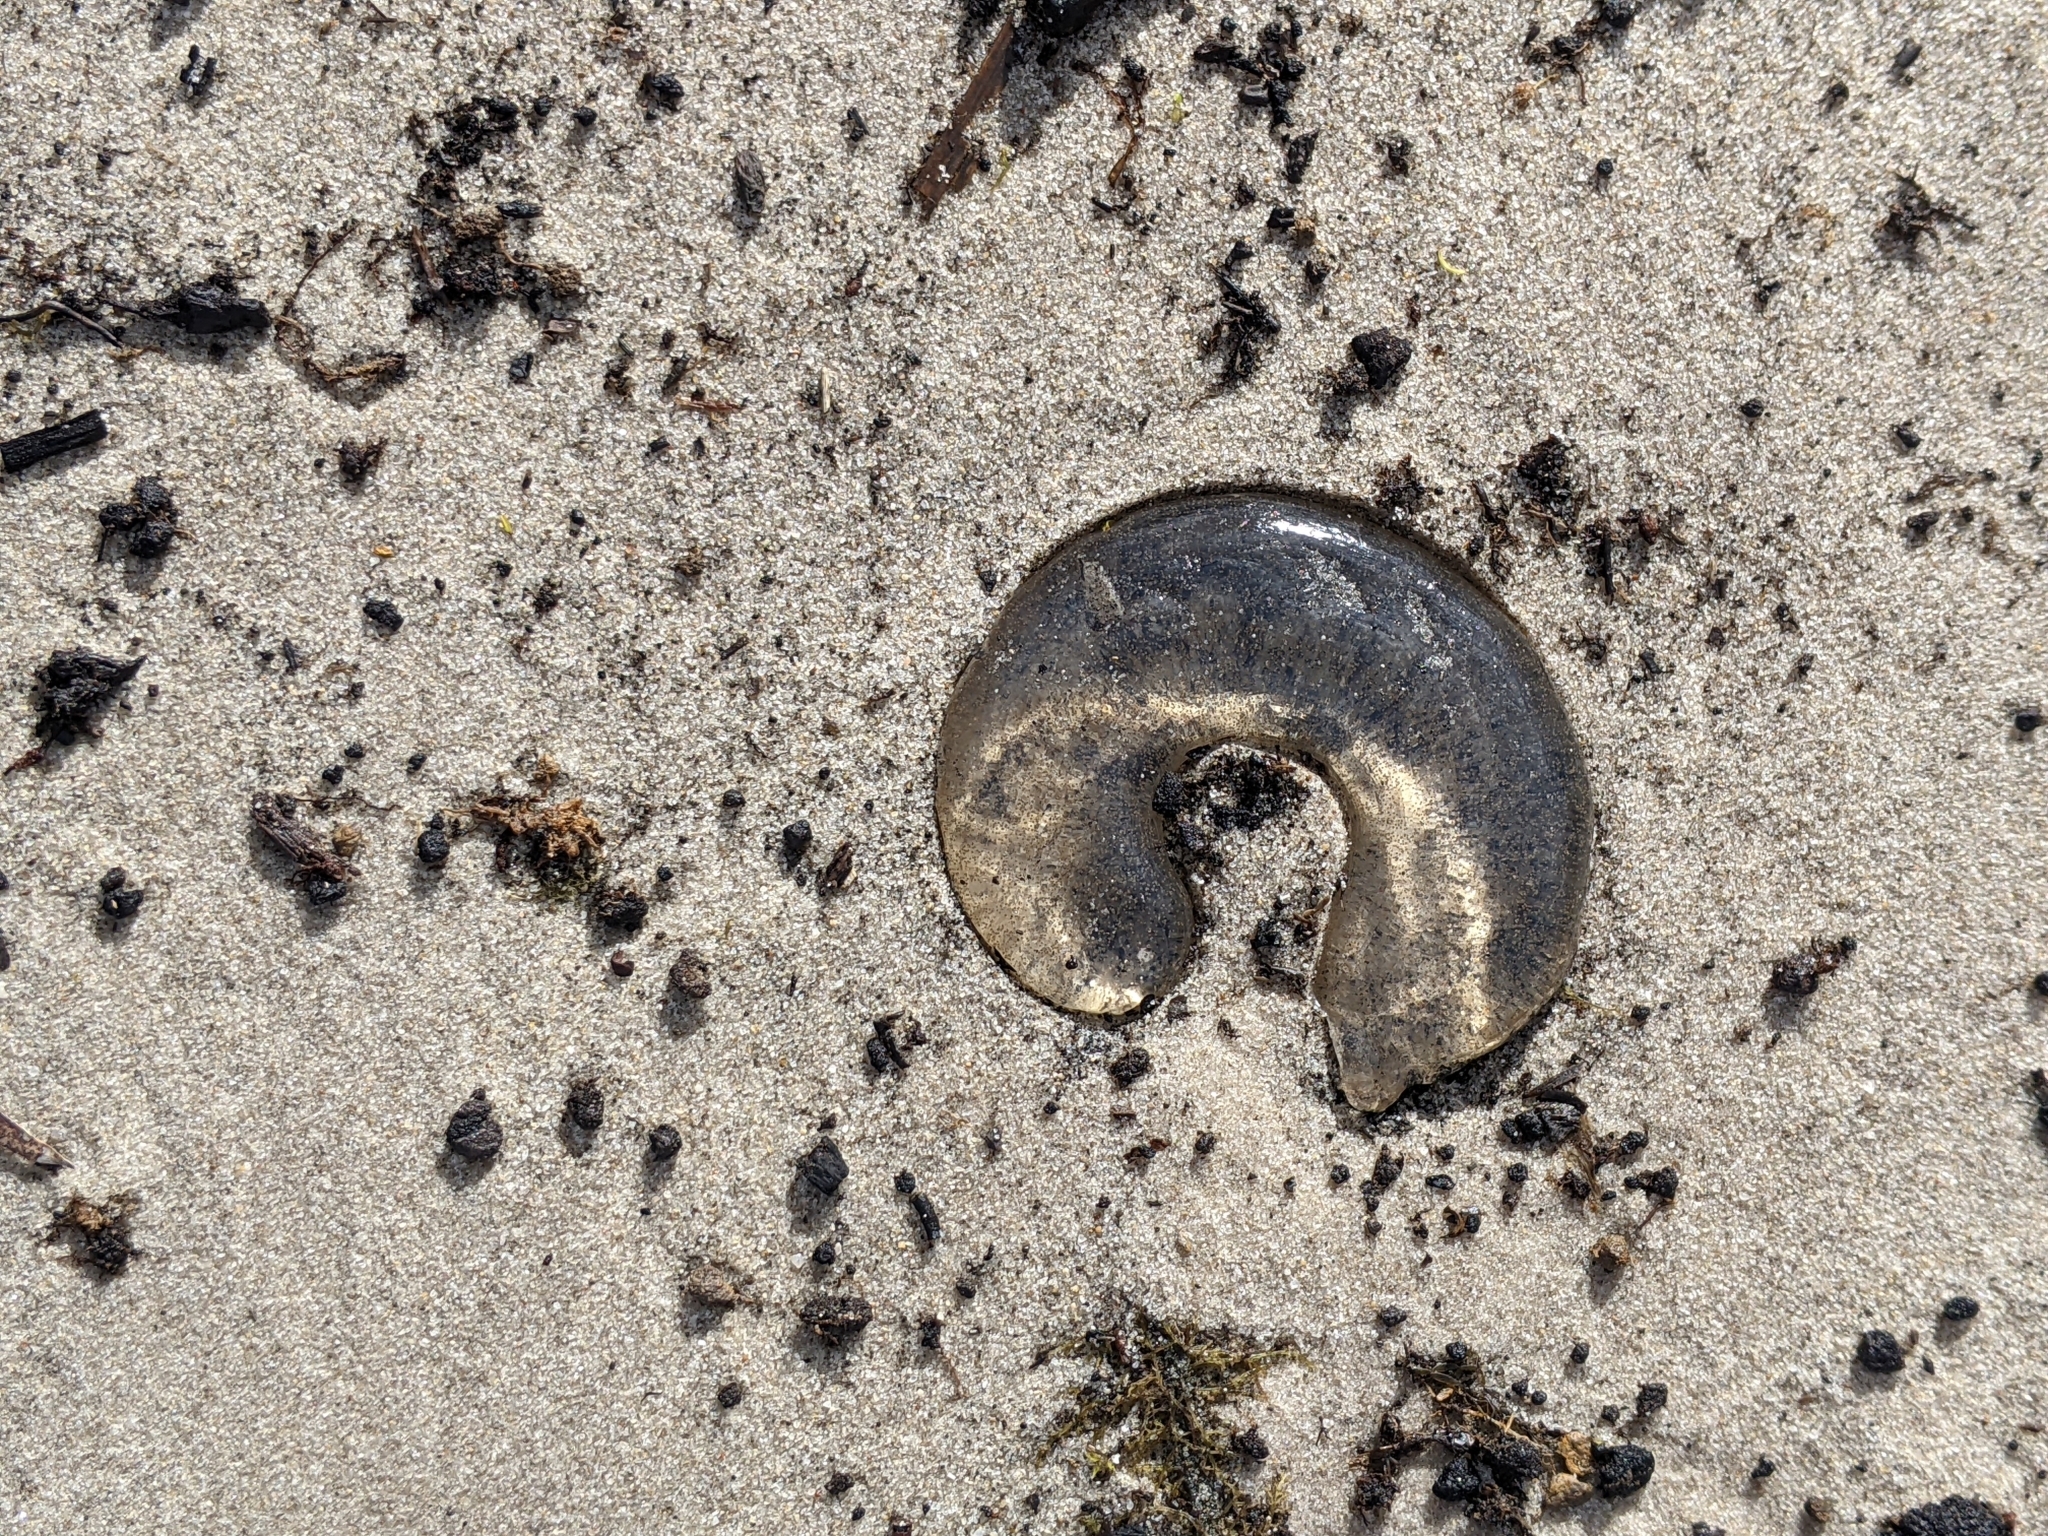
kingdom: Animalia
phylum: Mollusca
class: Gastropoda
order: Littorinimorpha
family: Naticidae
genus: Conuber
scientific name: Conuber conicum
